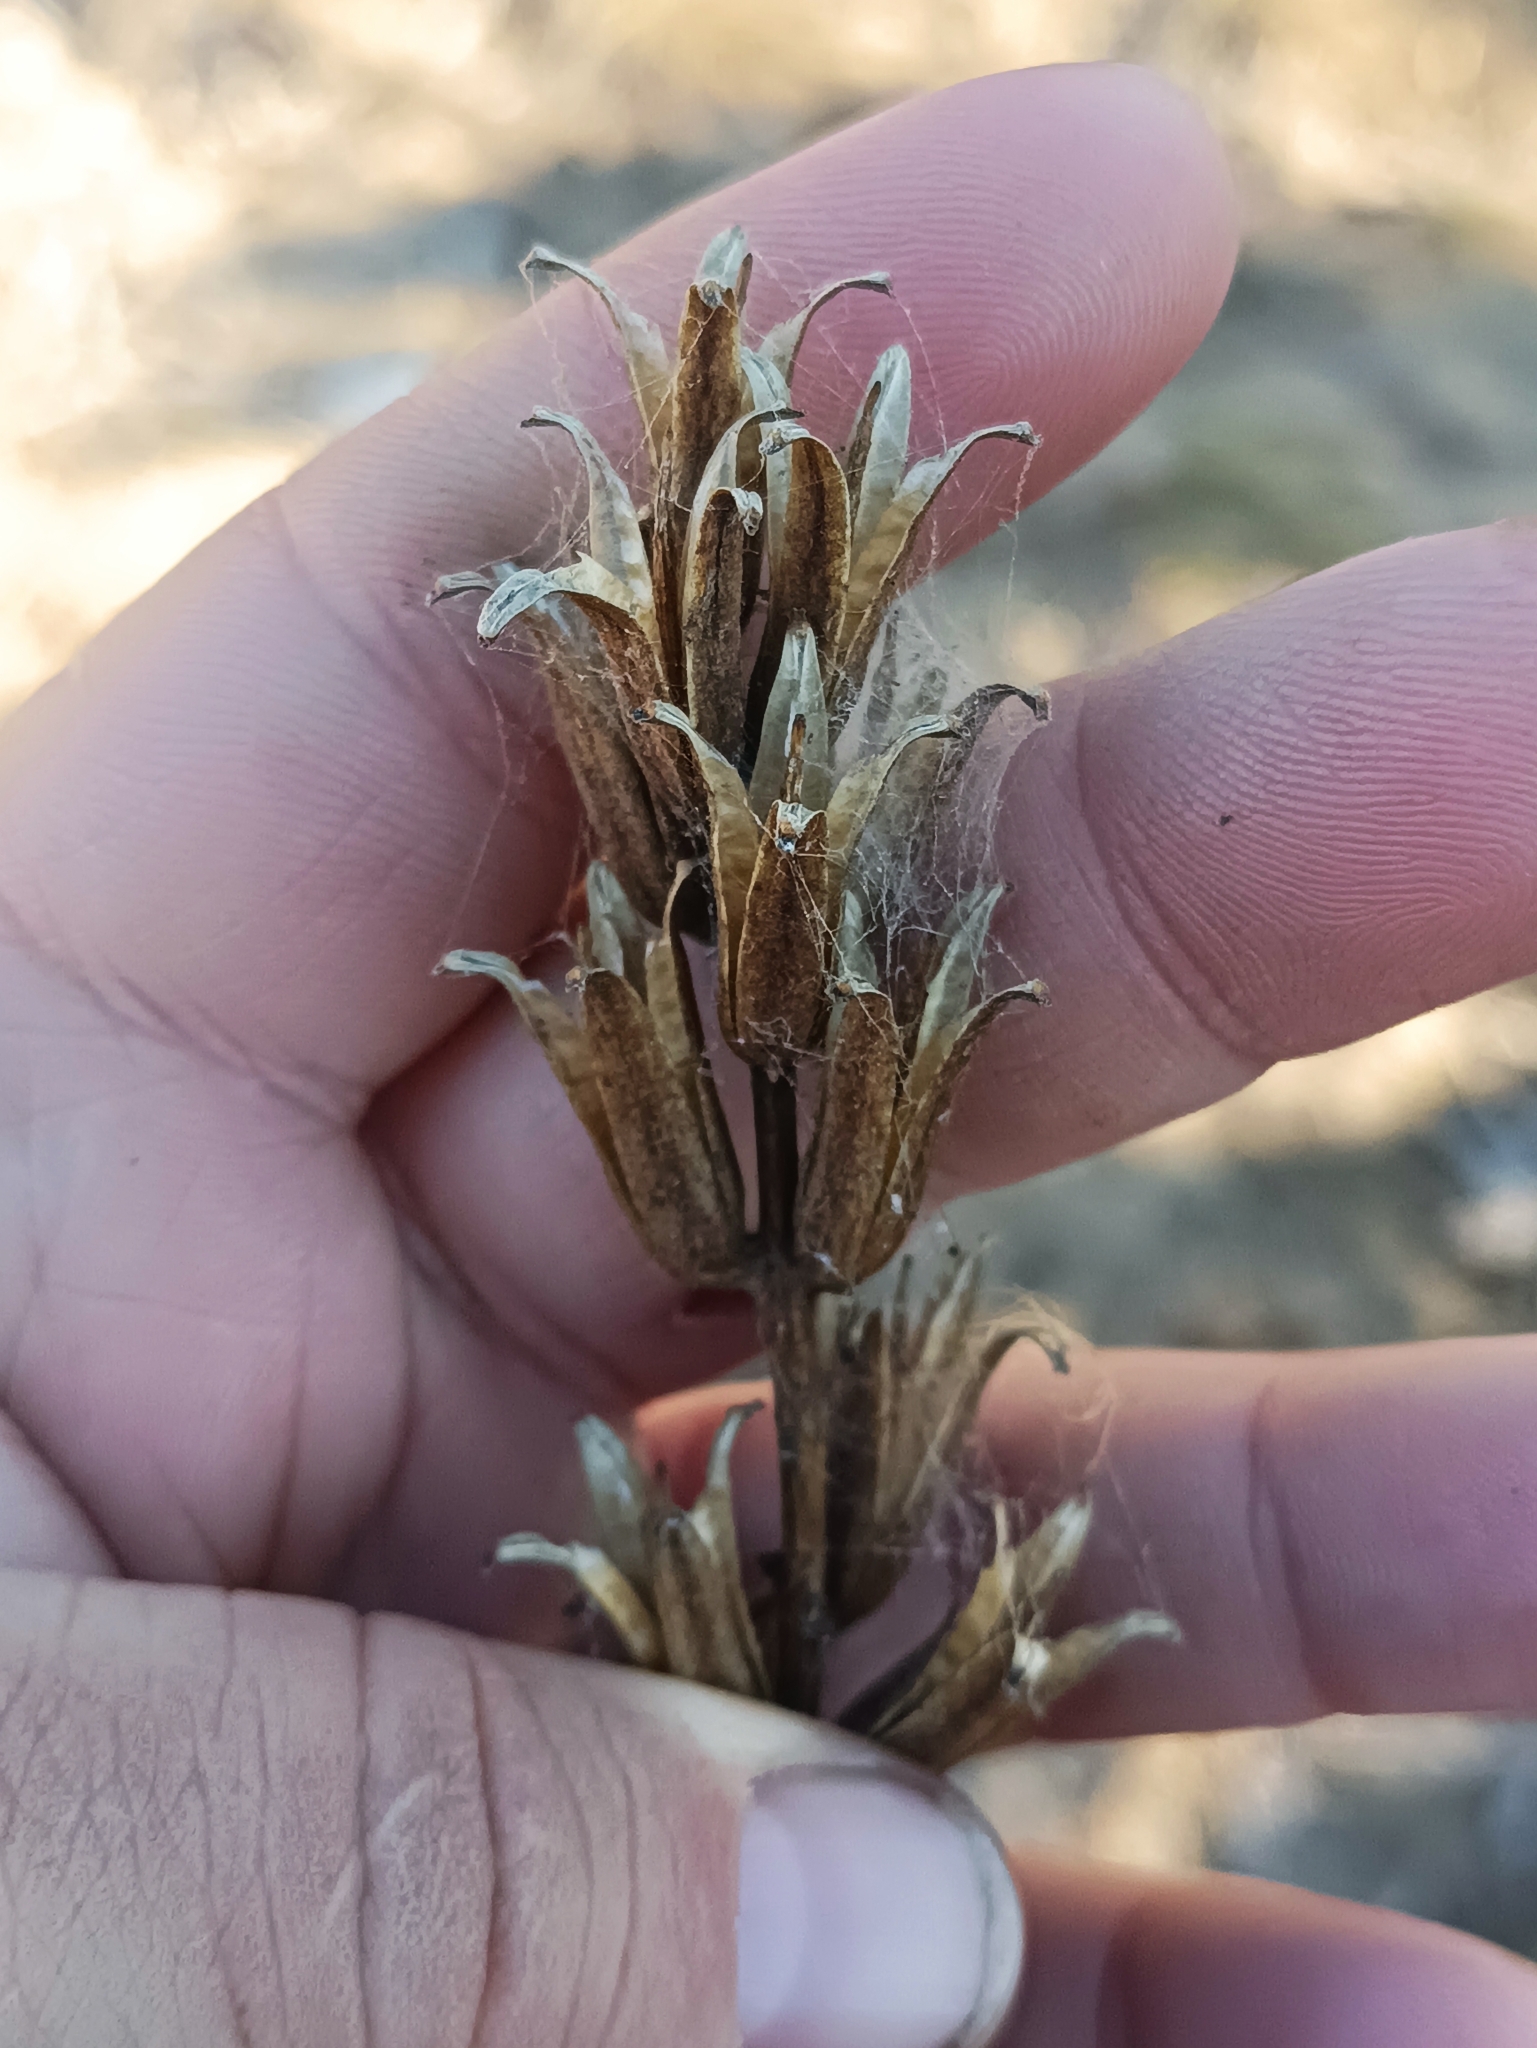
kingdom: Plantae
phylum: Tracheophyta
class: Magnoliopsida
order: Myrtales
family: Onagraceae
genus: Oenothera
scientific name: Oenothera
